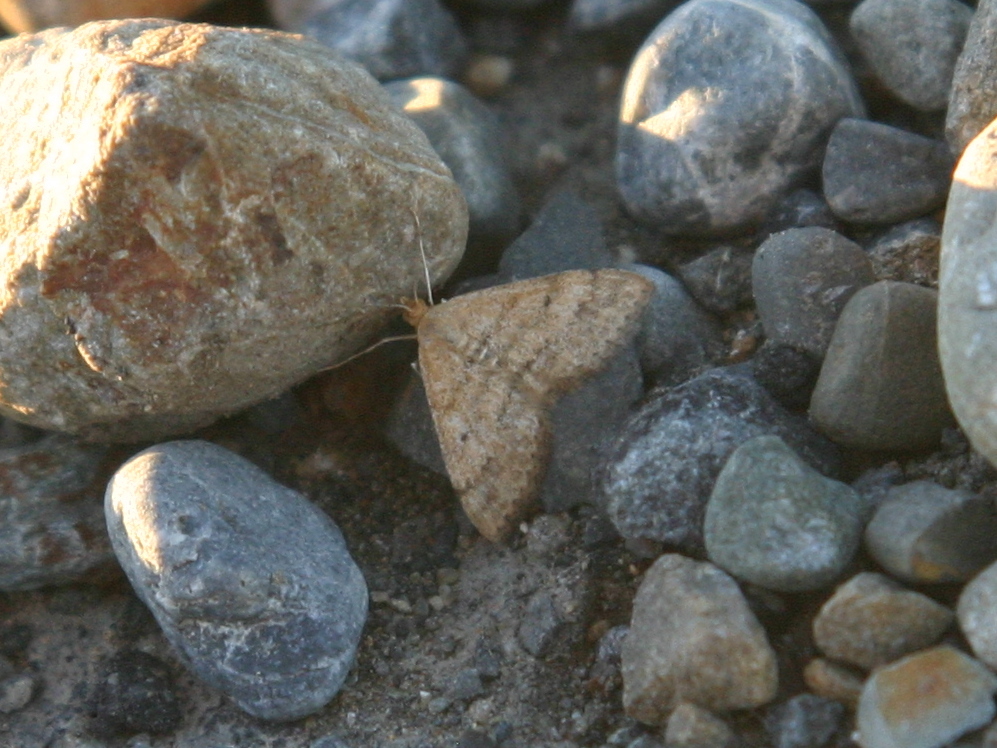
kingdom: Animalia
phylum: Arthropoda
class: Insecta
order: Lepidoptera
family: Geometridae
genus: Scopula
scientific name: Scopula rubraria
